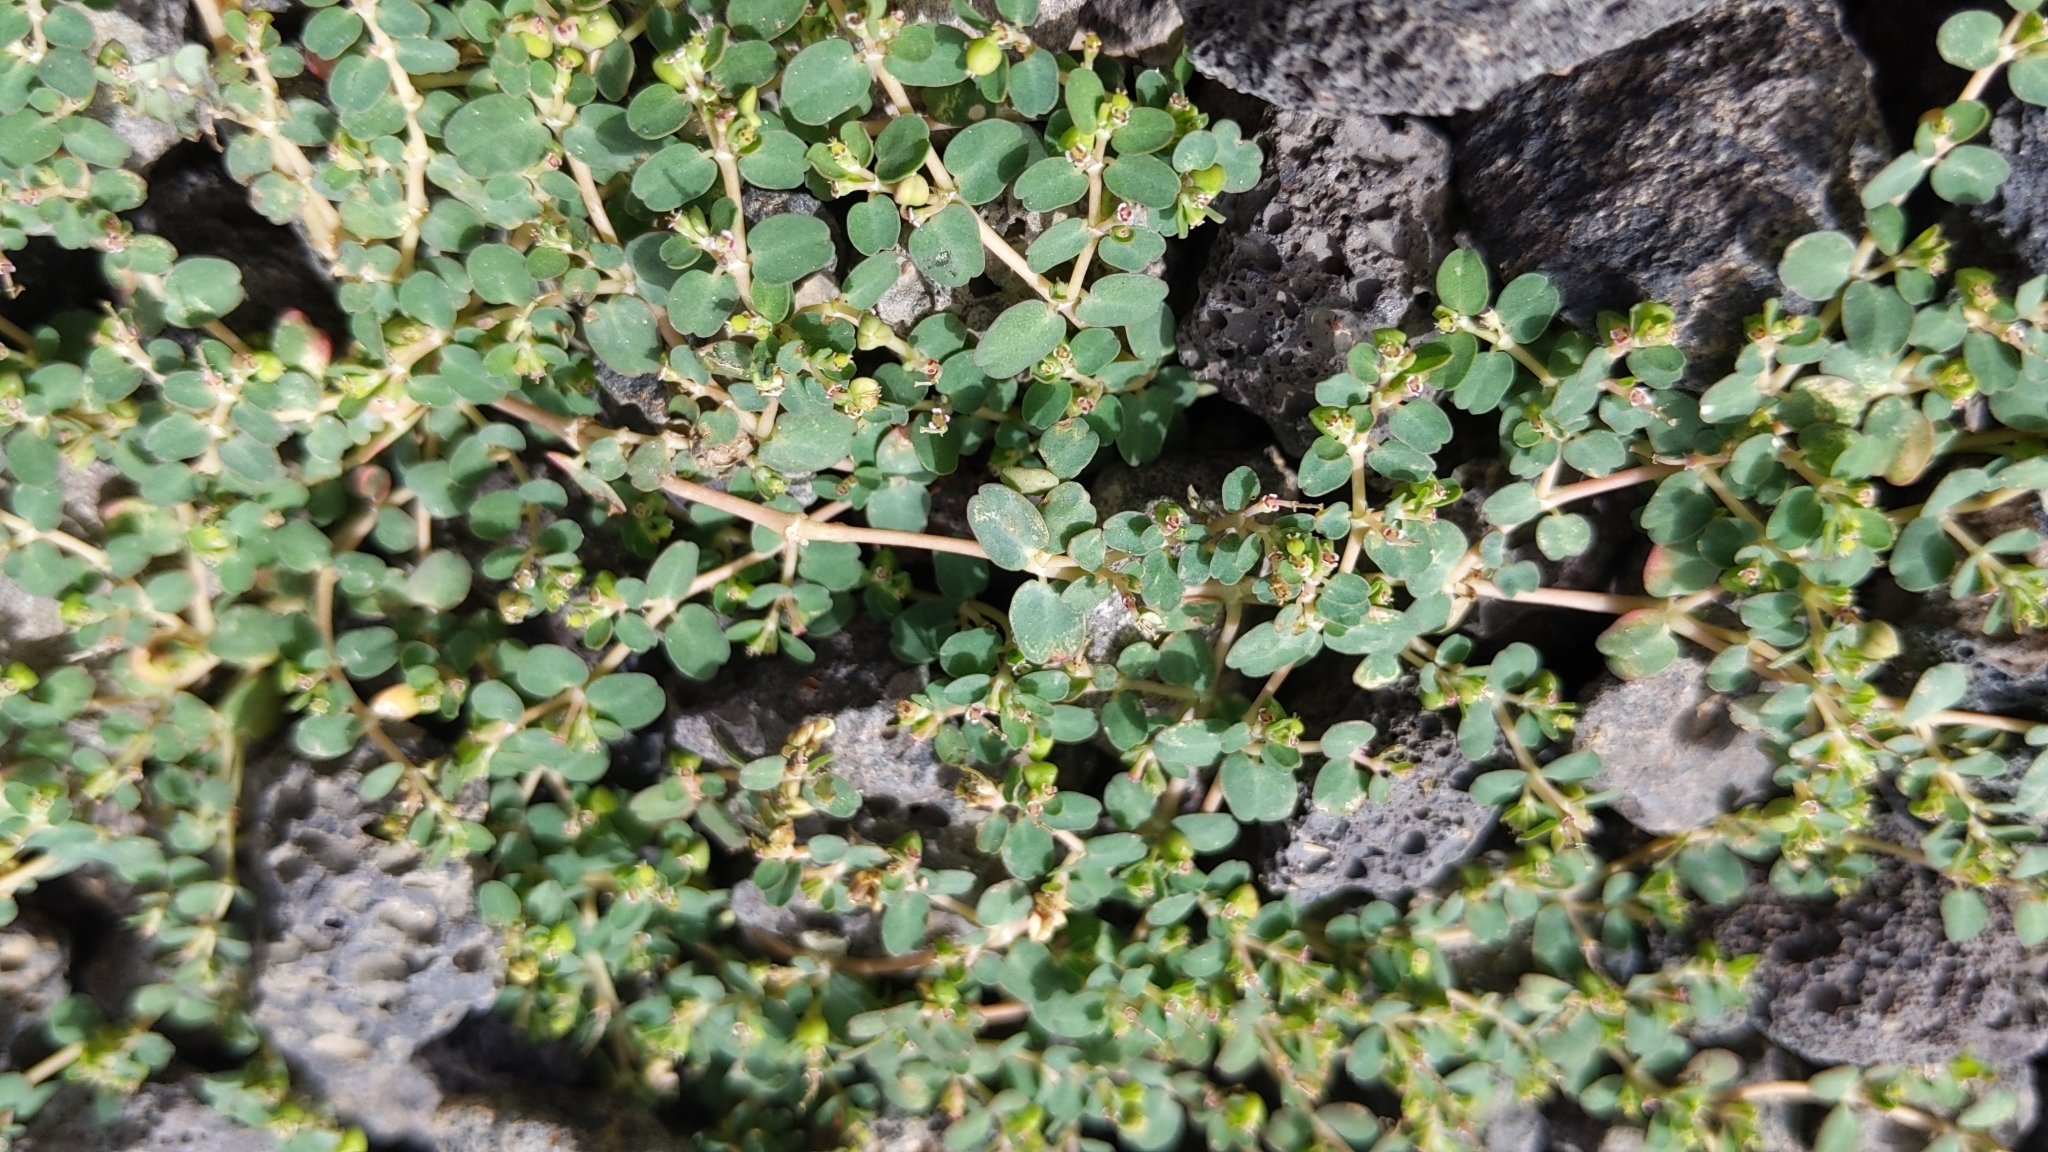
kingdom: Plantae
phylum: Tracheophyta
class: Magnoliopsida
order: Malpighiales
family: Euphorbiaceae
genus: Euphorbia
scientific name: Euphorbia serpens
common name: Matted sandmat
